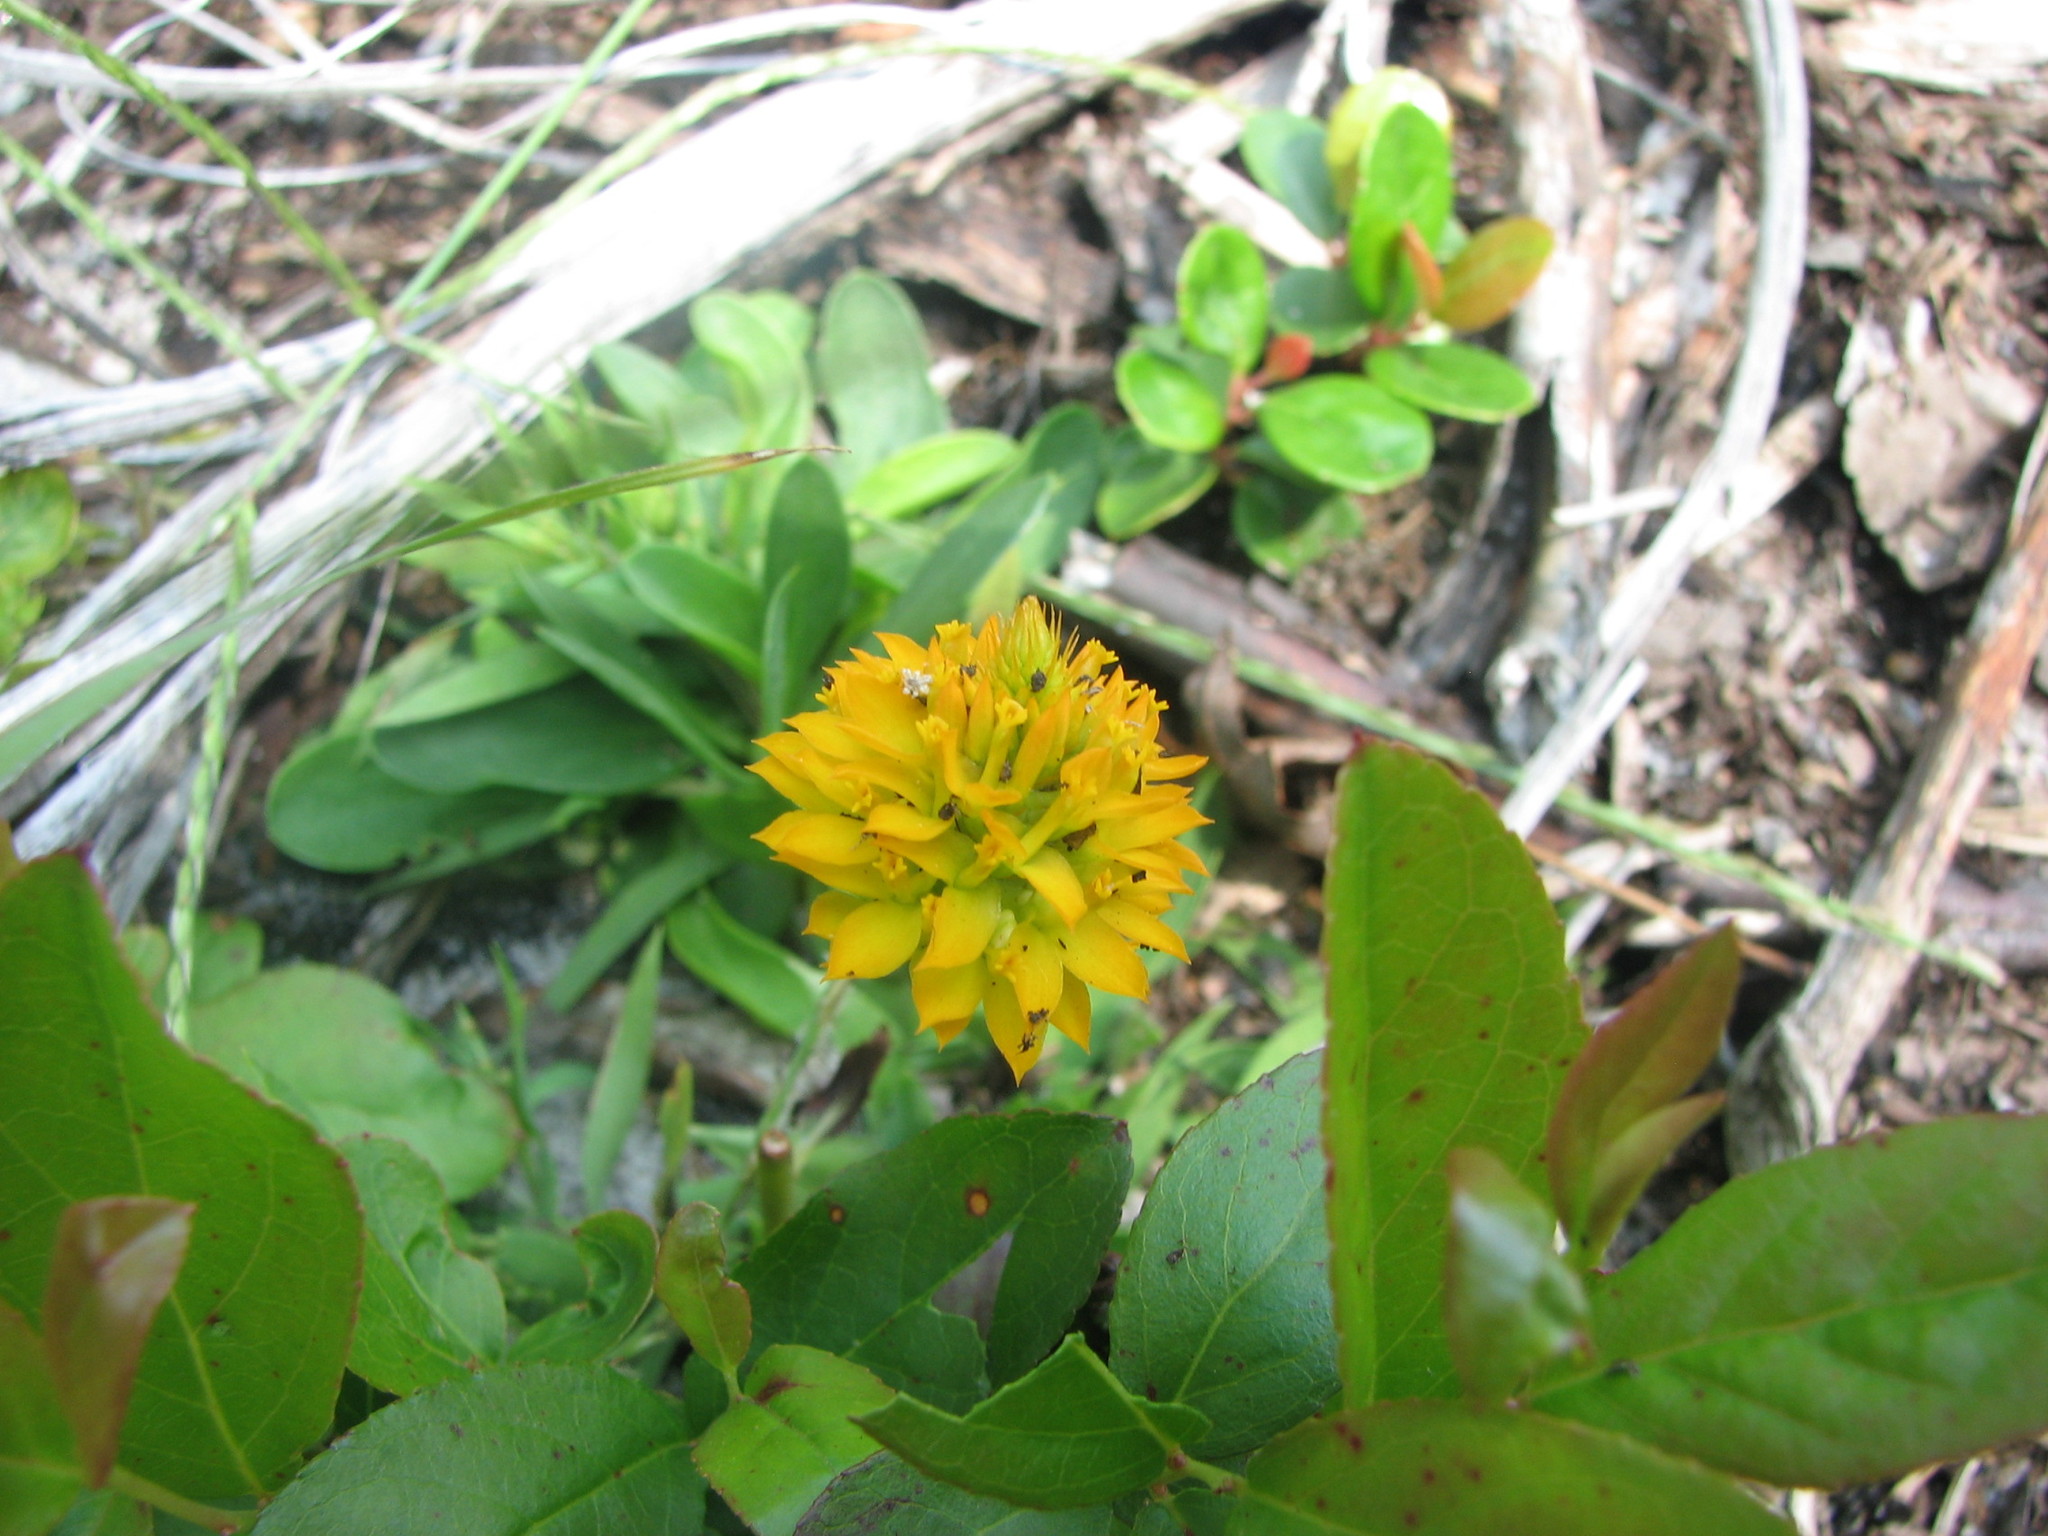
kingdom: Plantae
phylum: Tracheophyta
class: Magnoliopsida
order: Fabales
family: Polygalaceae
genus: Polygala
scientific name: Polygala lutea
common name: Orange milkwort
